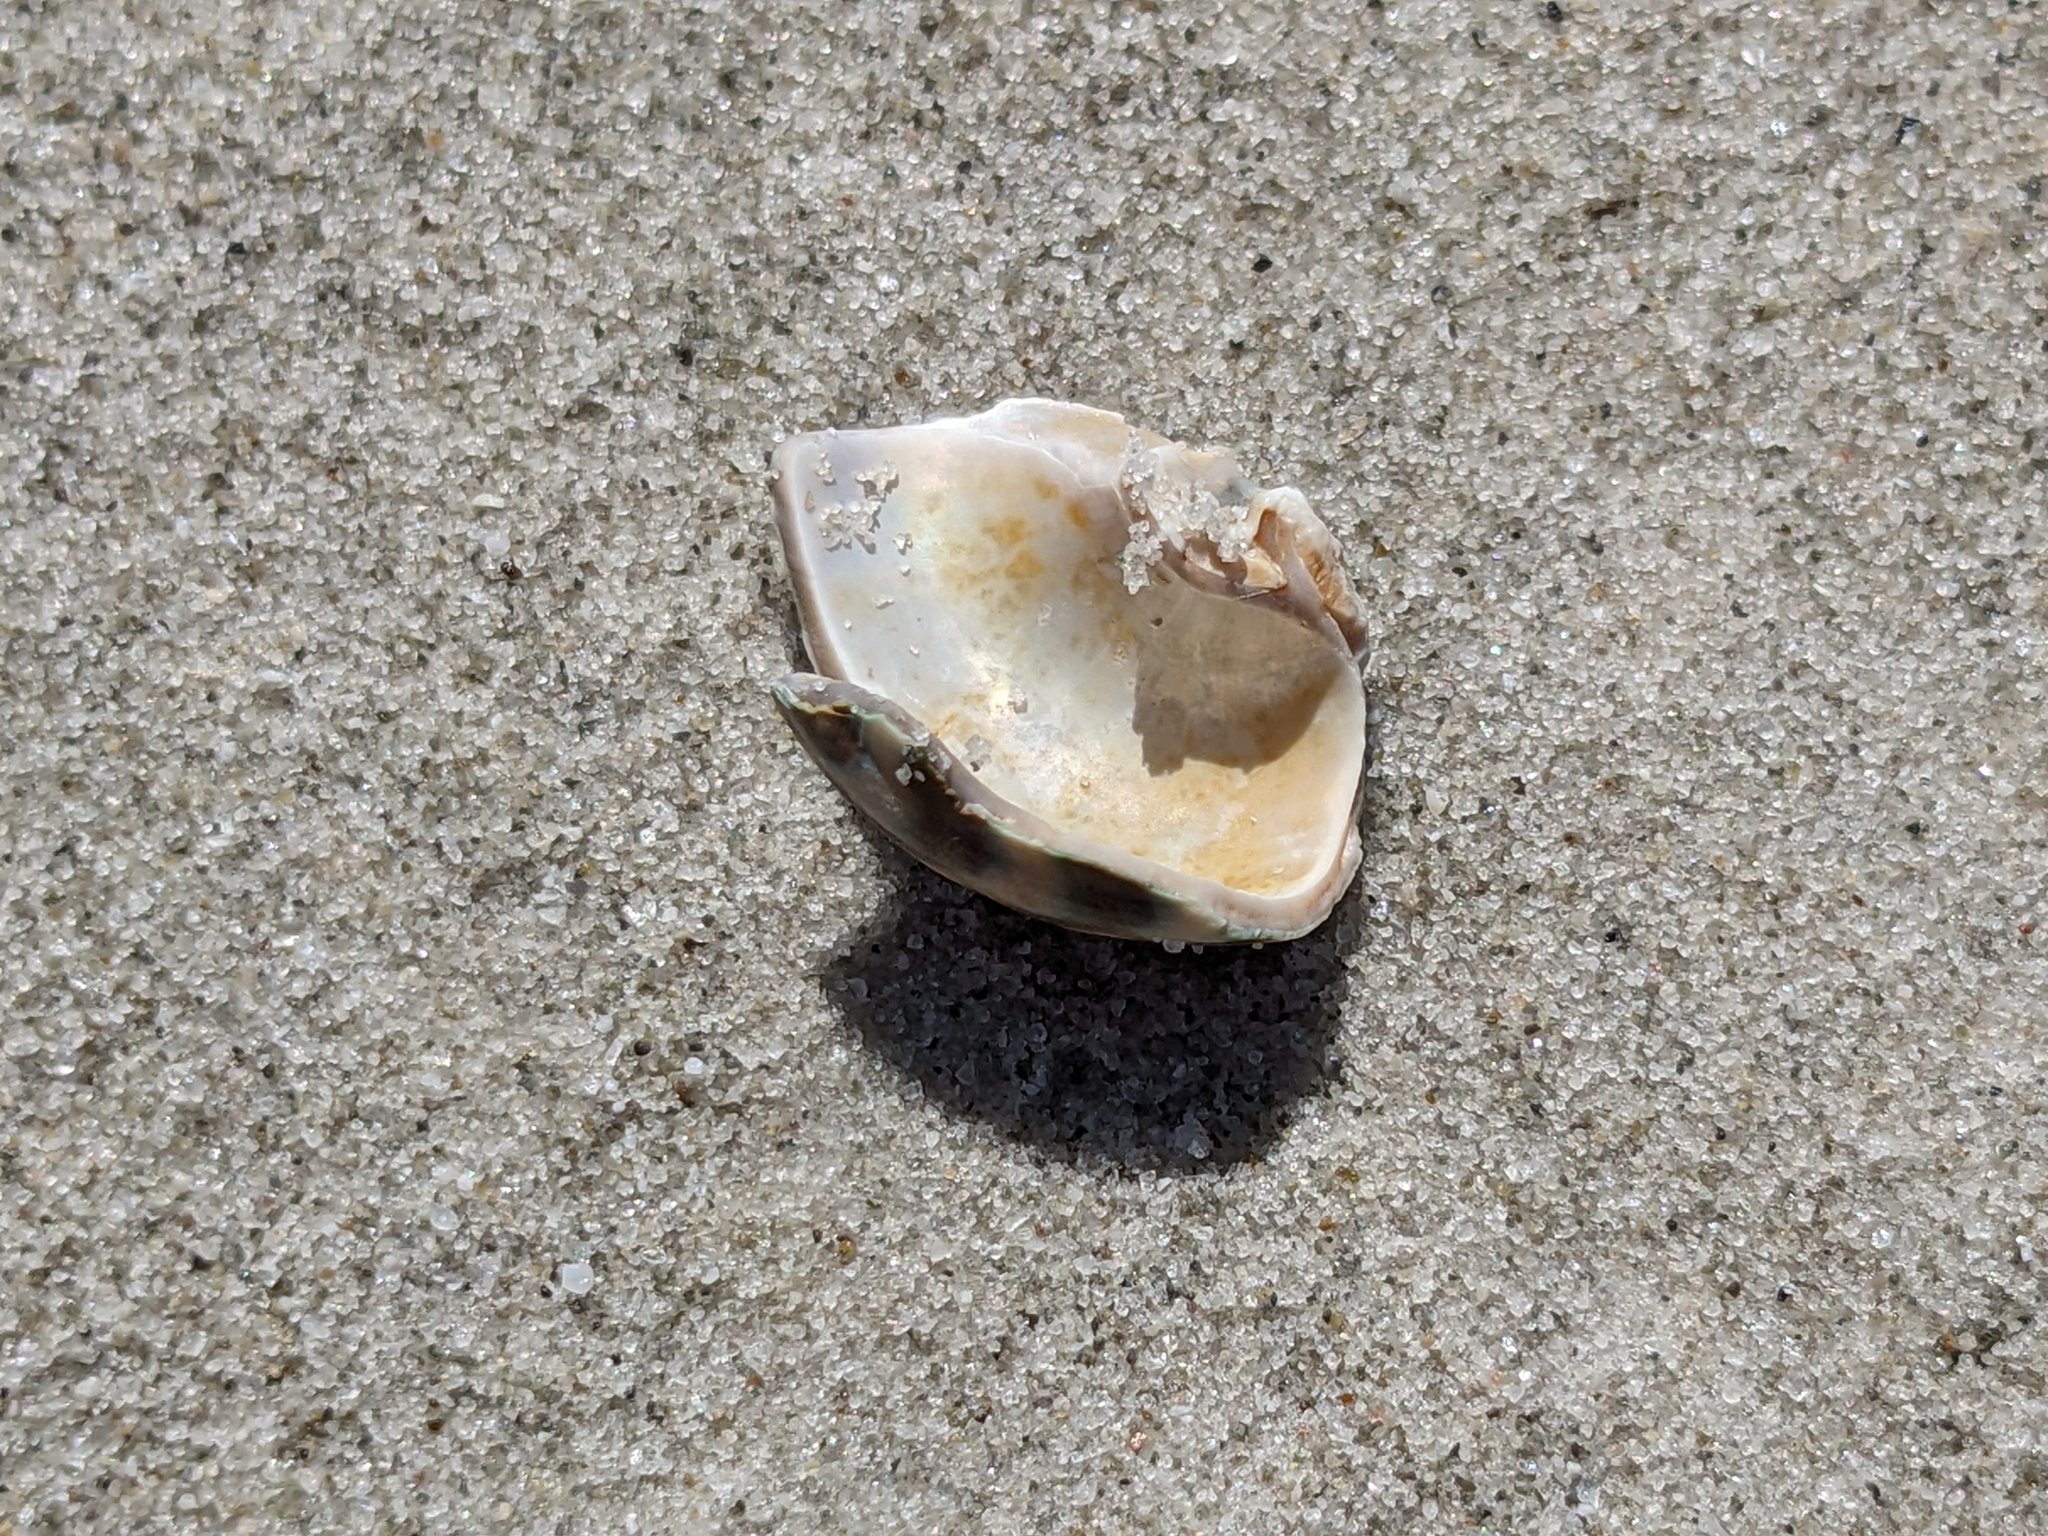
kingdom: Animalia
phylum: Mollusca
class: Gastropoda
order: Trochida
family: Turbinidae
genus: Lunella
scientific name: Lunella undulata
